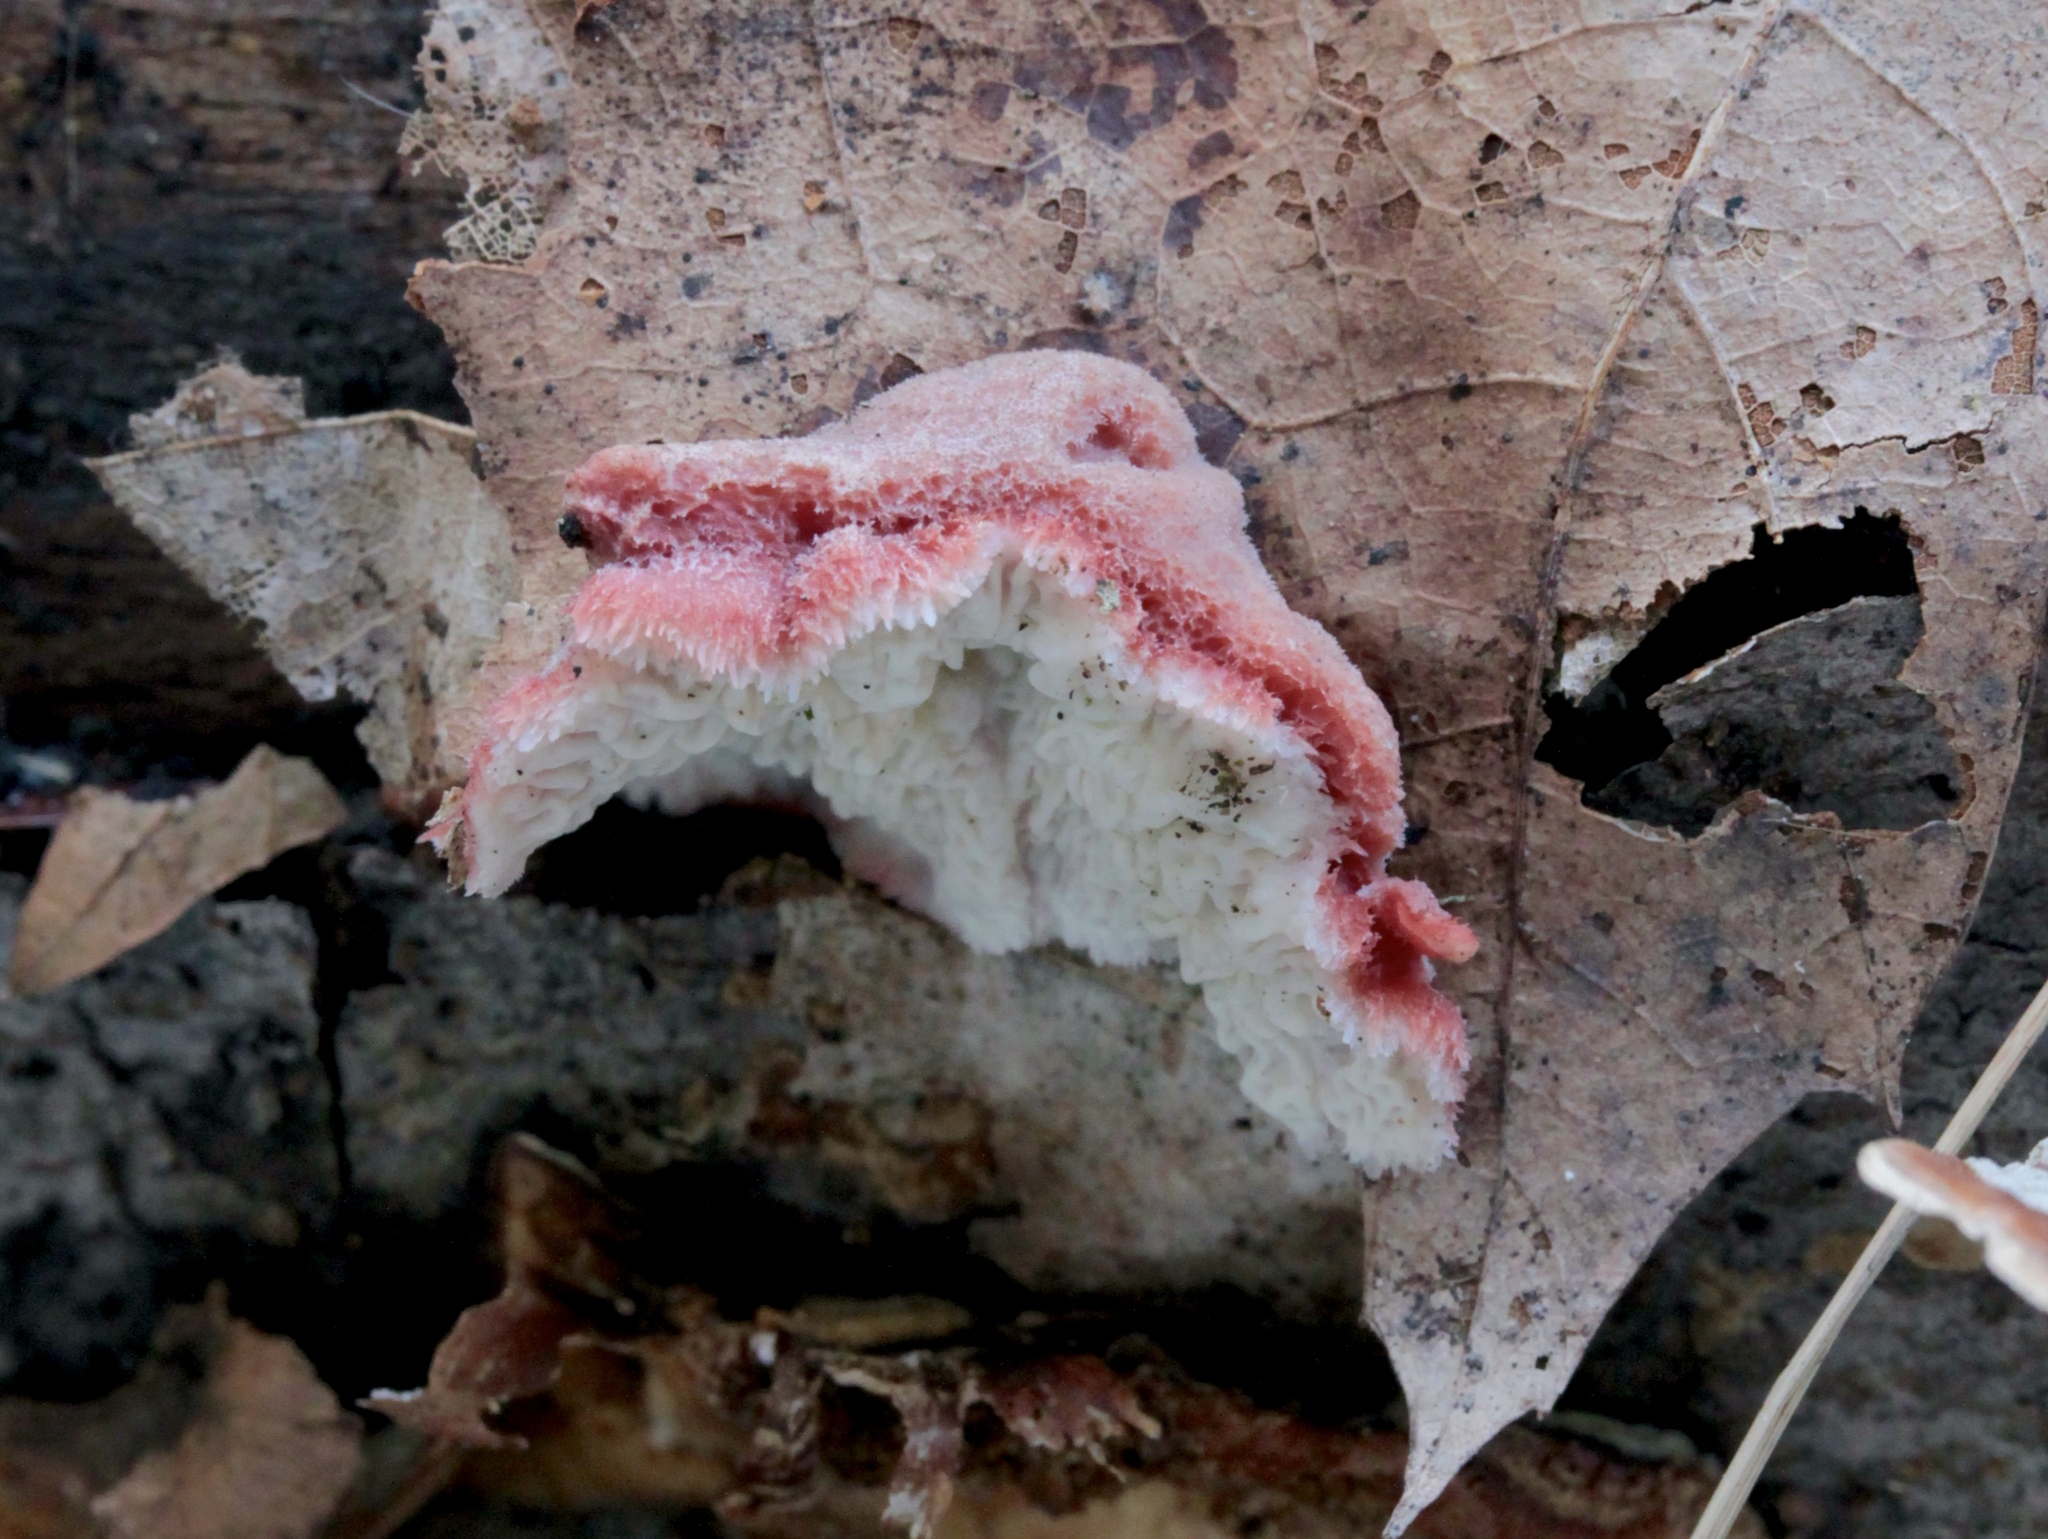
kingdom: Fungi
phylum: Basidiomycota
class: Agaricomycetes
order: Polyporales
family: Irpicaceae
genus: Byssomerulius
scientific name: Byssomerulius incarnatus
